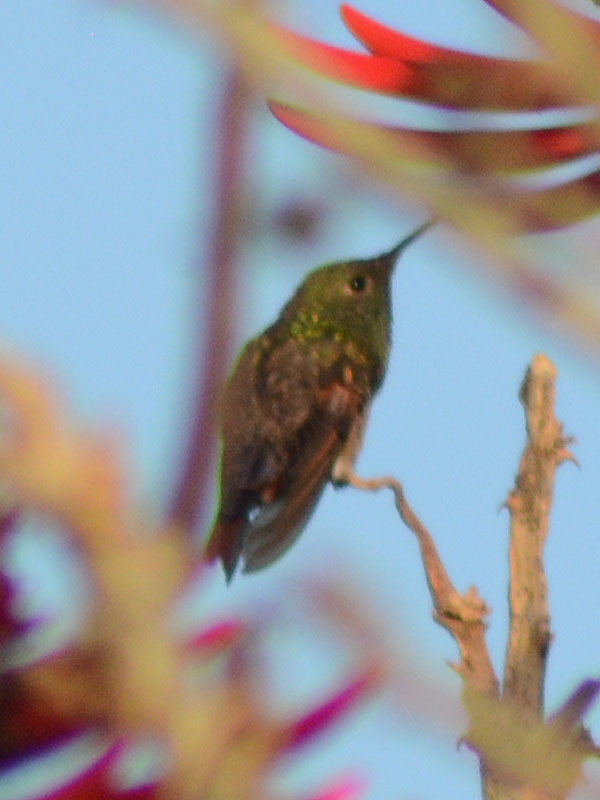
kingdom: Animalia
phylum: Chordata
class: Aves
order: Apodiformes
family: Trochilidae
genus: Saucerottia
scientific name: Saucerottia beryllina
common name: Berylline hummingbird
